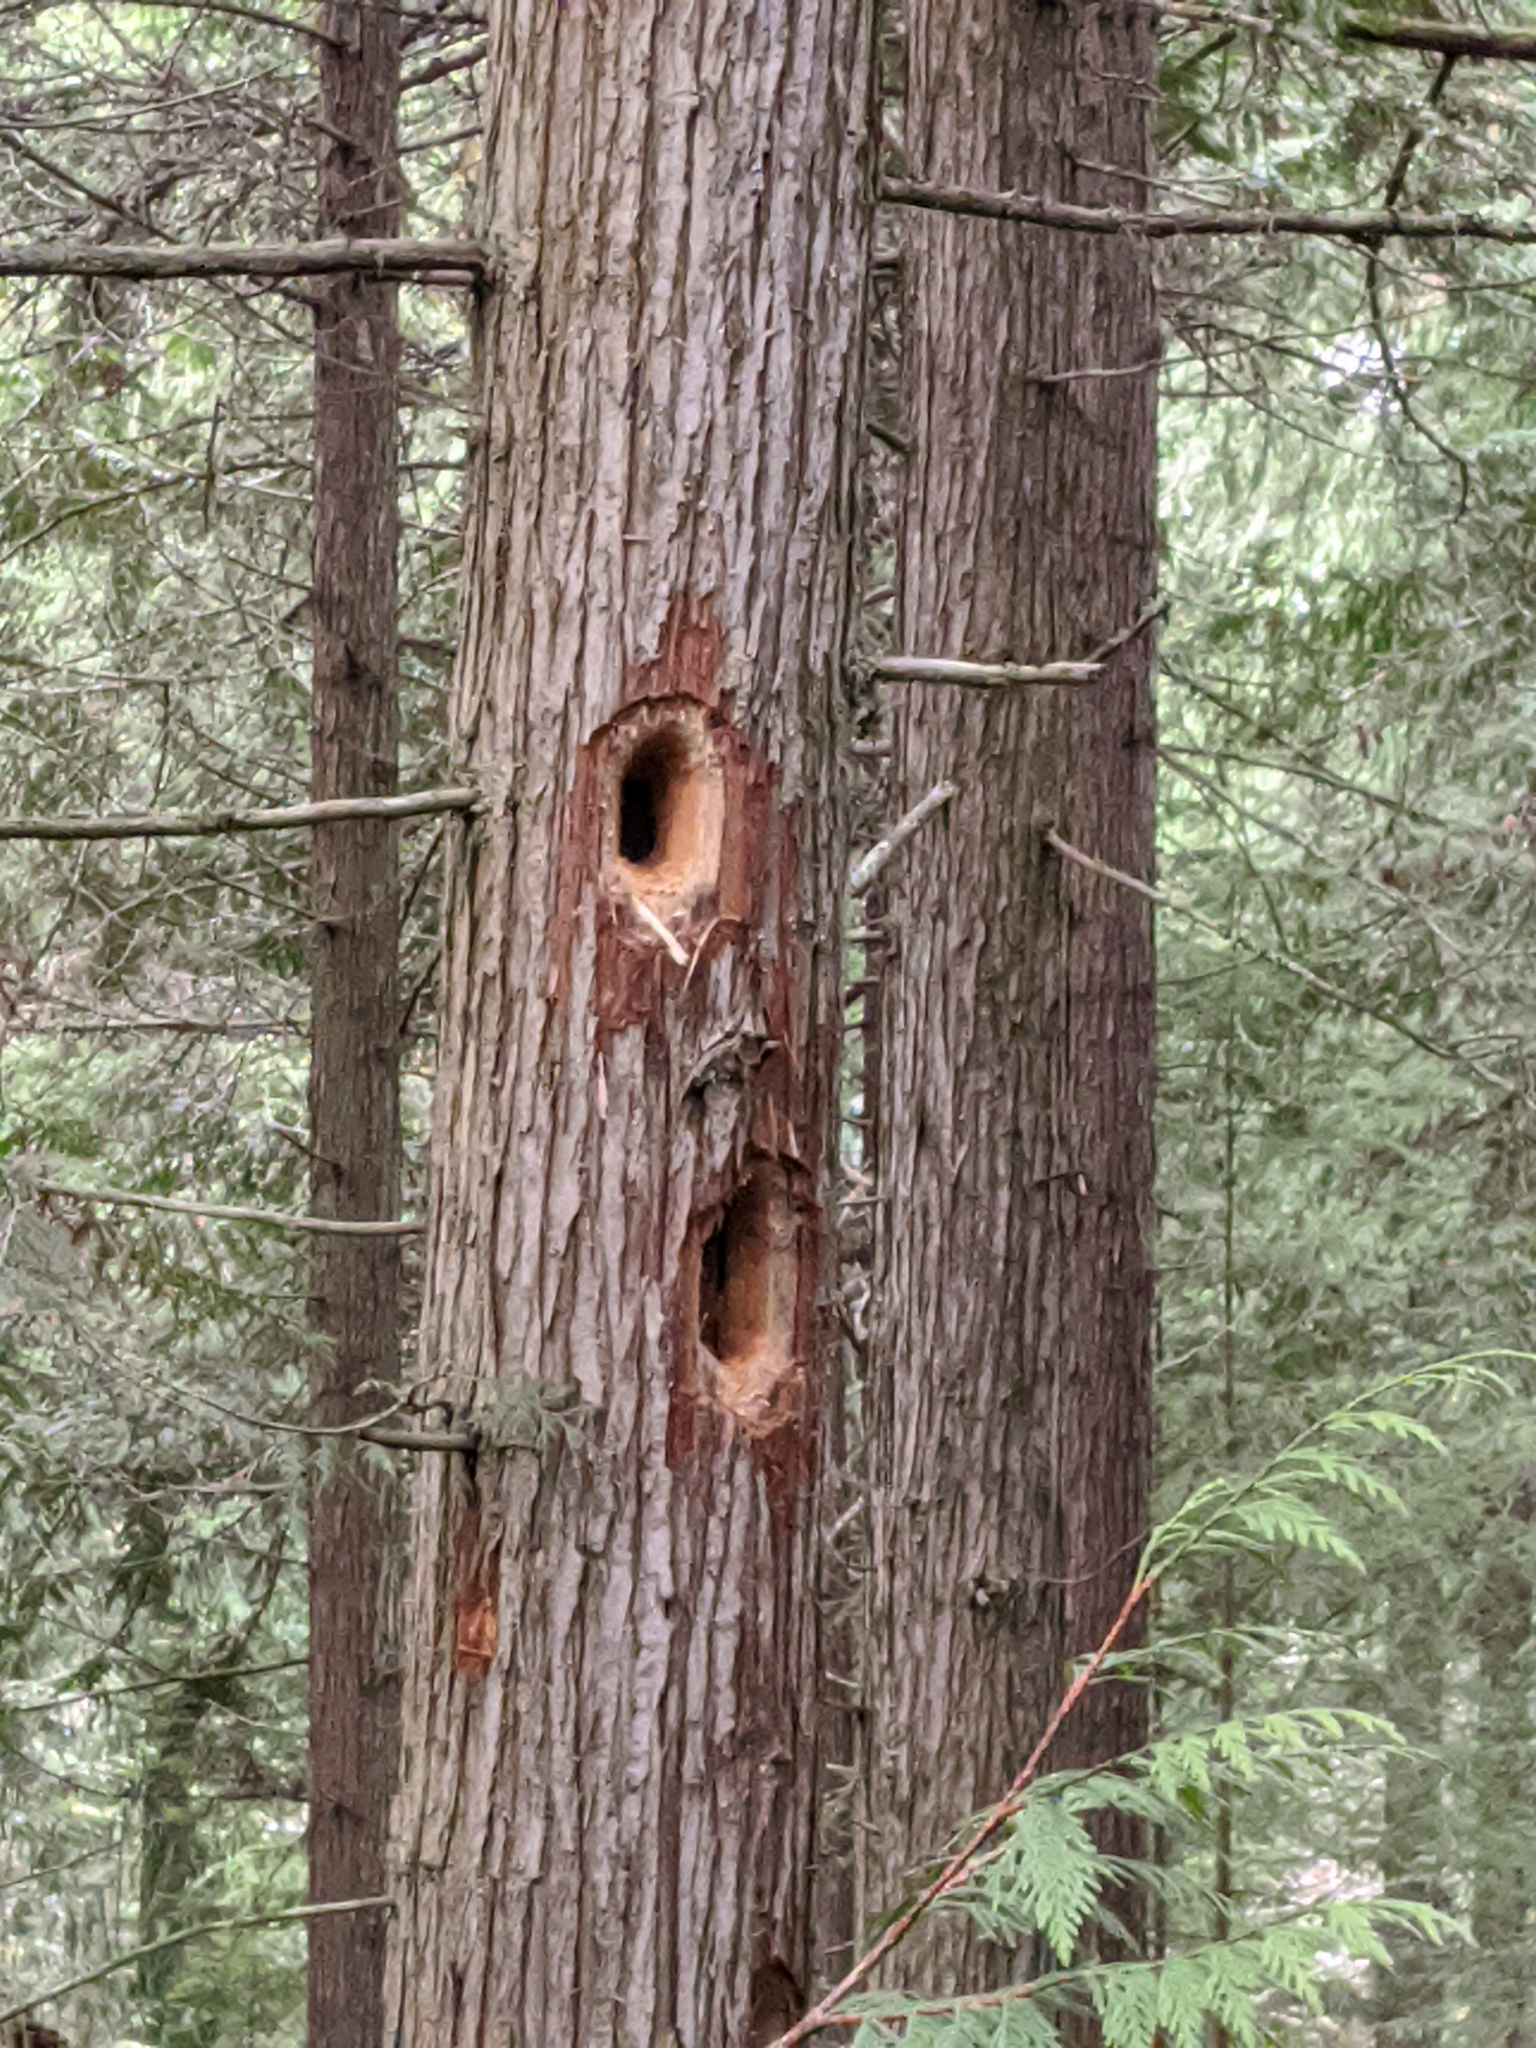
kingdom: Animalia
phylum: Chordata
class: Aves
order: Piciformes
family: Picidae
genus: Dryocopus
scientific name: Dryocopus pileatus
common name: Pileated woodpecker
